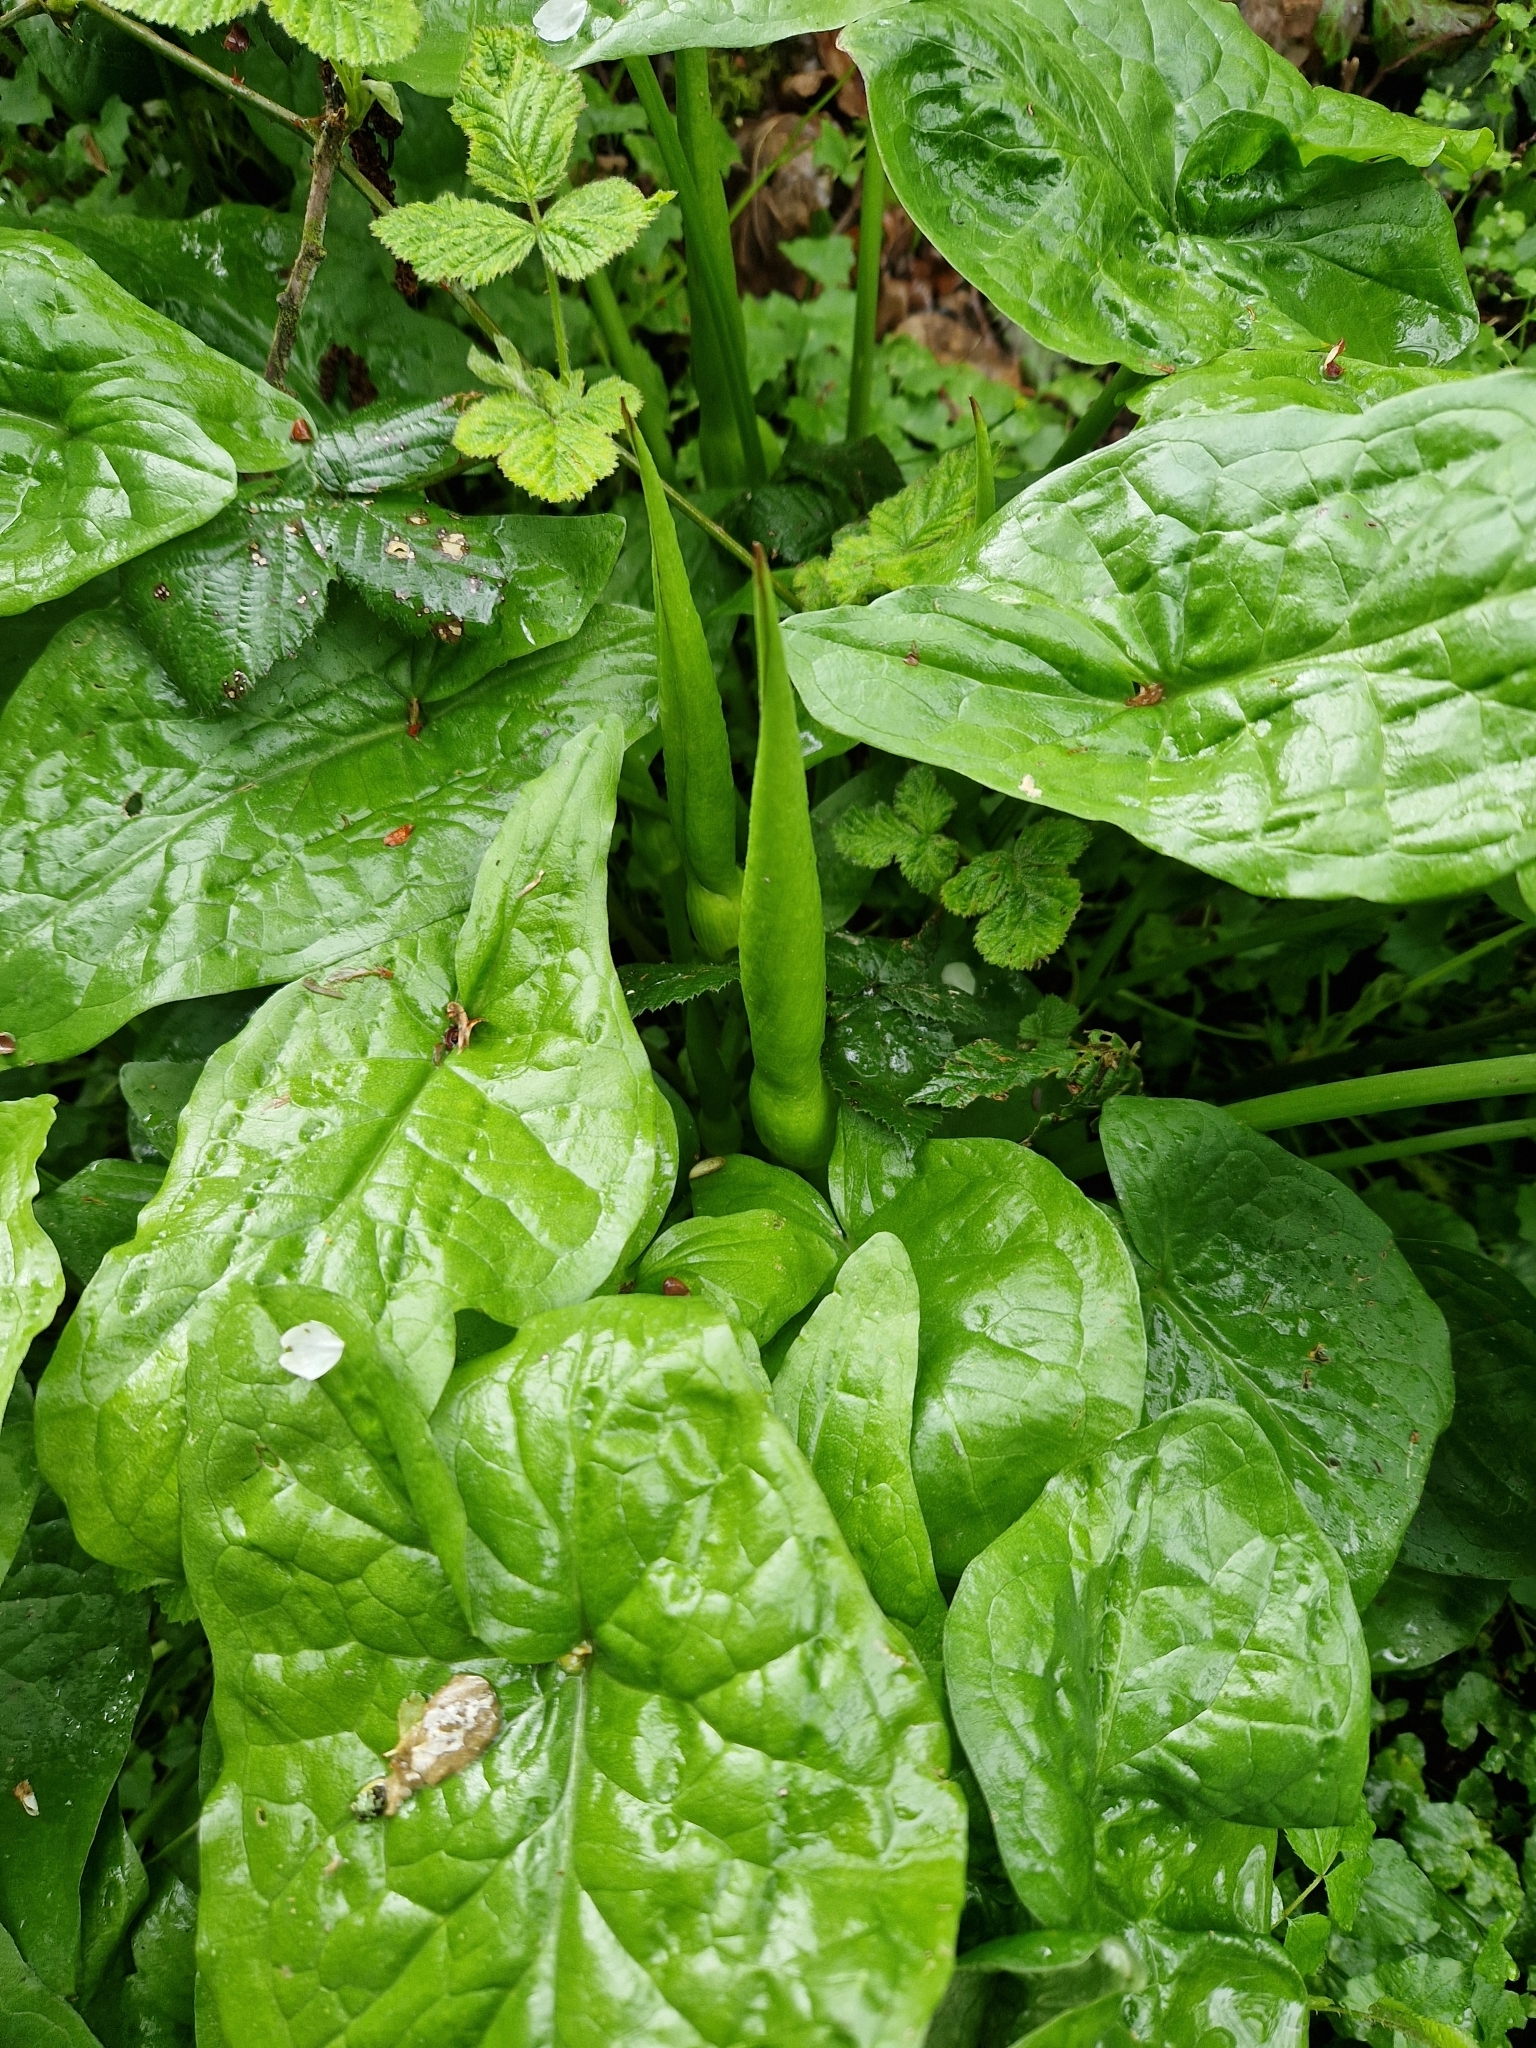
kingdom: Plantae
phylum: Tracheophyta
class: Liliopsida
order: Alismatales
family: Araceae
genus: Arum
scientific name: Arum maculatum
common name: Lords-and-ladies
